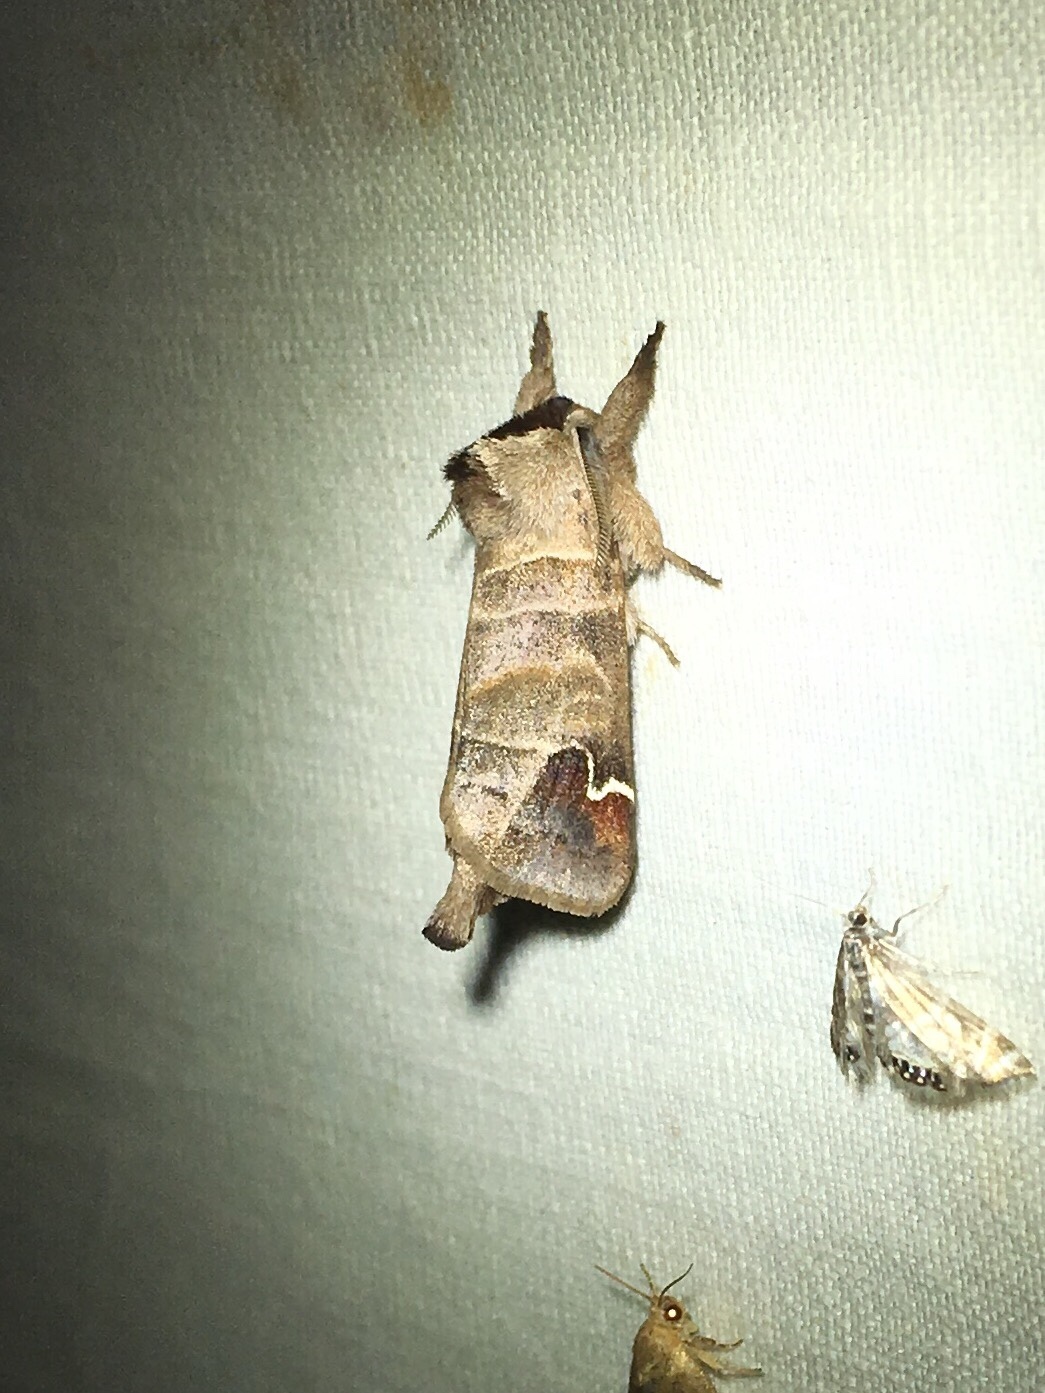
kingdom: Animalia
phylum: Arthropoda
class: Insecta
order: Lepidoptera
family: Notodontidae
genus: Clostera
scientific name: Clostera albosigma
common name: Sigmoid prominent
